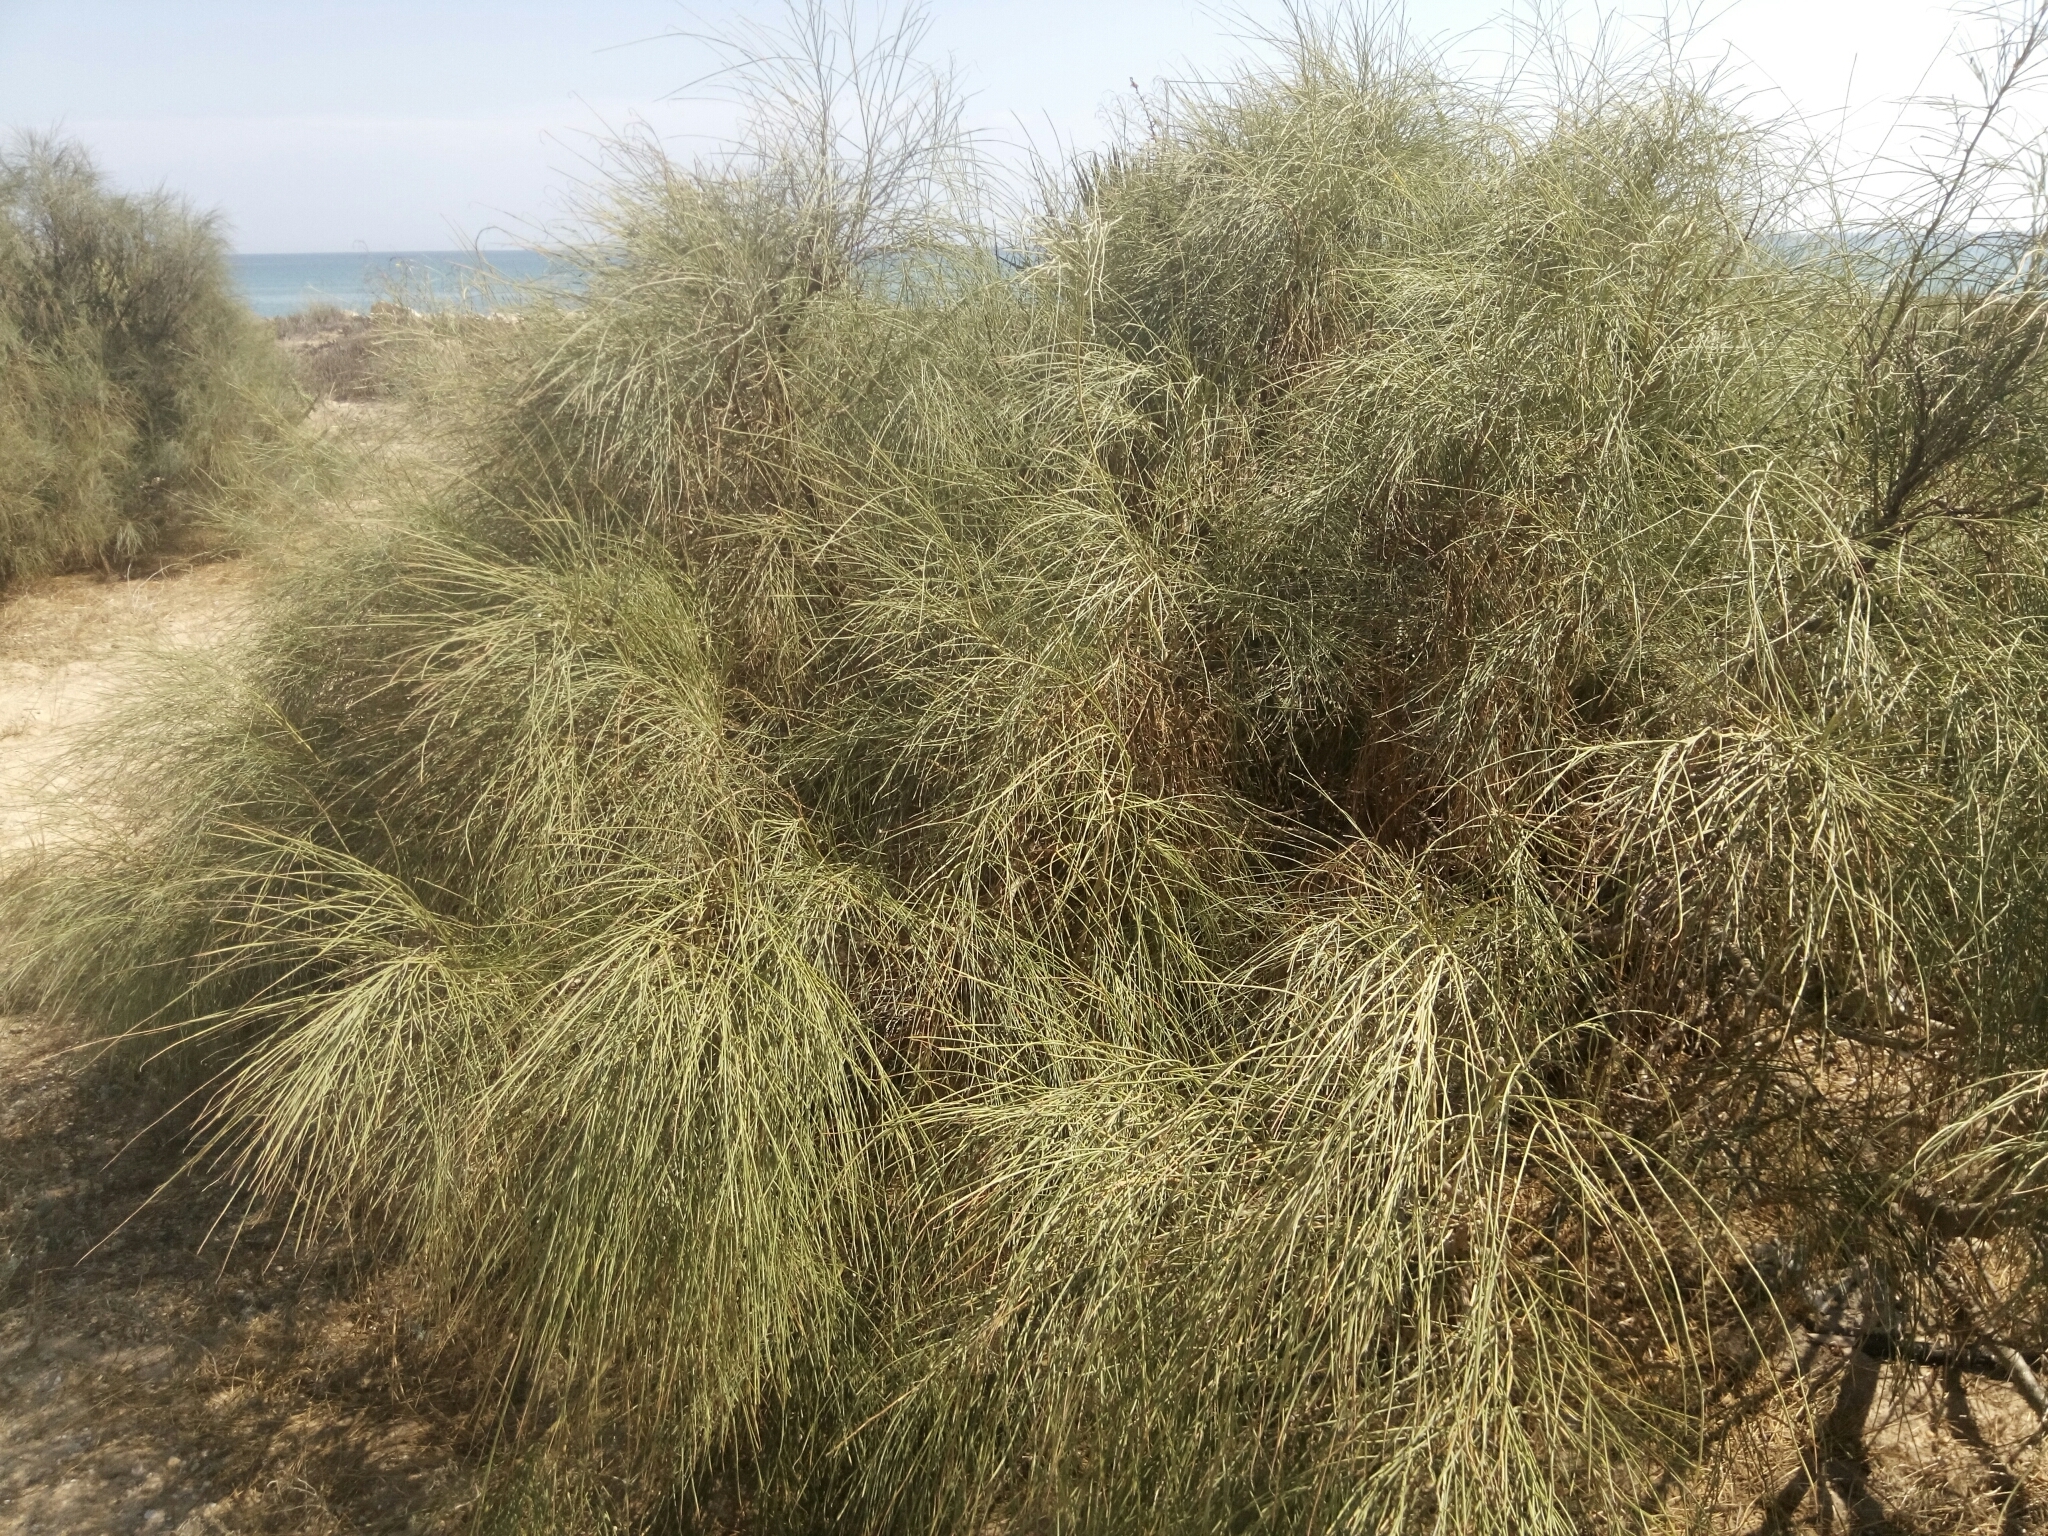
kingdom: Plantae
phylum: Tracheophyta
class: Magnoliopsida
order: Fabales
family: Fabaceae
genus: Retama
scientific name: Retama monosperma
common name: Bridal broom
